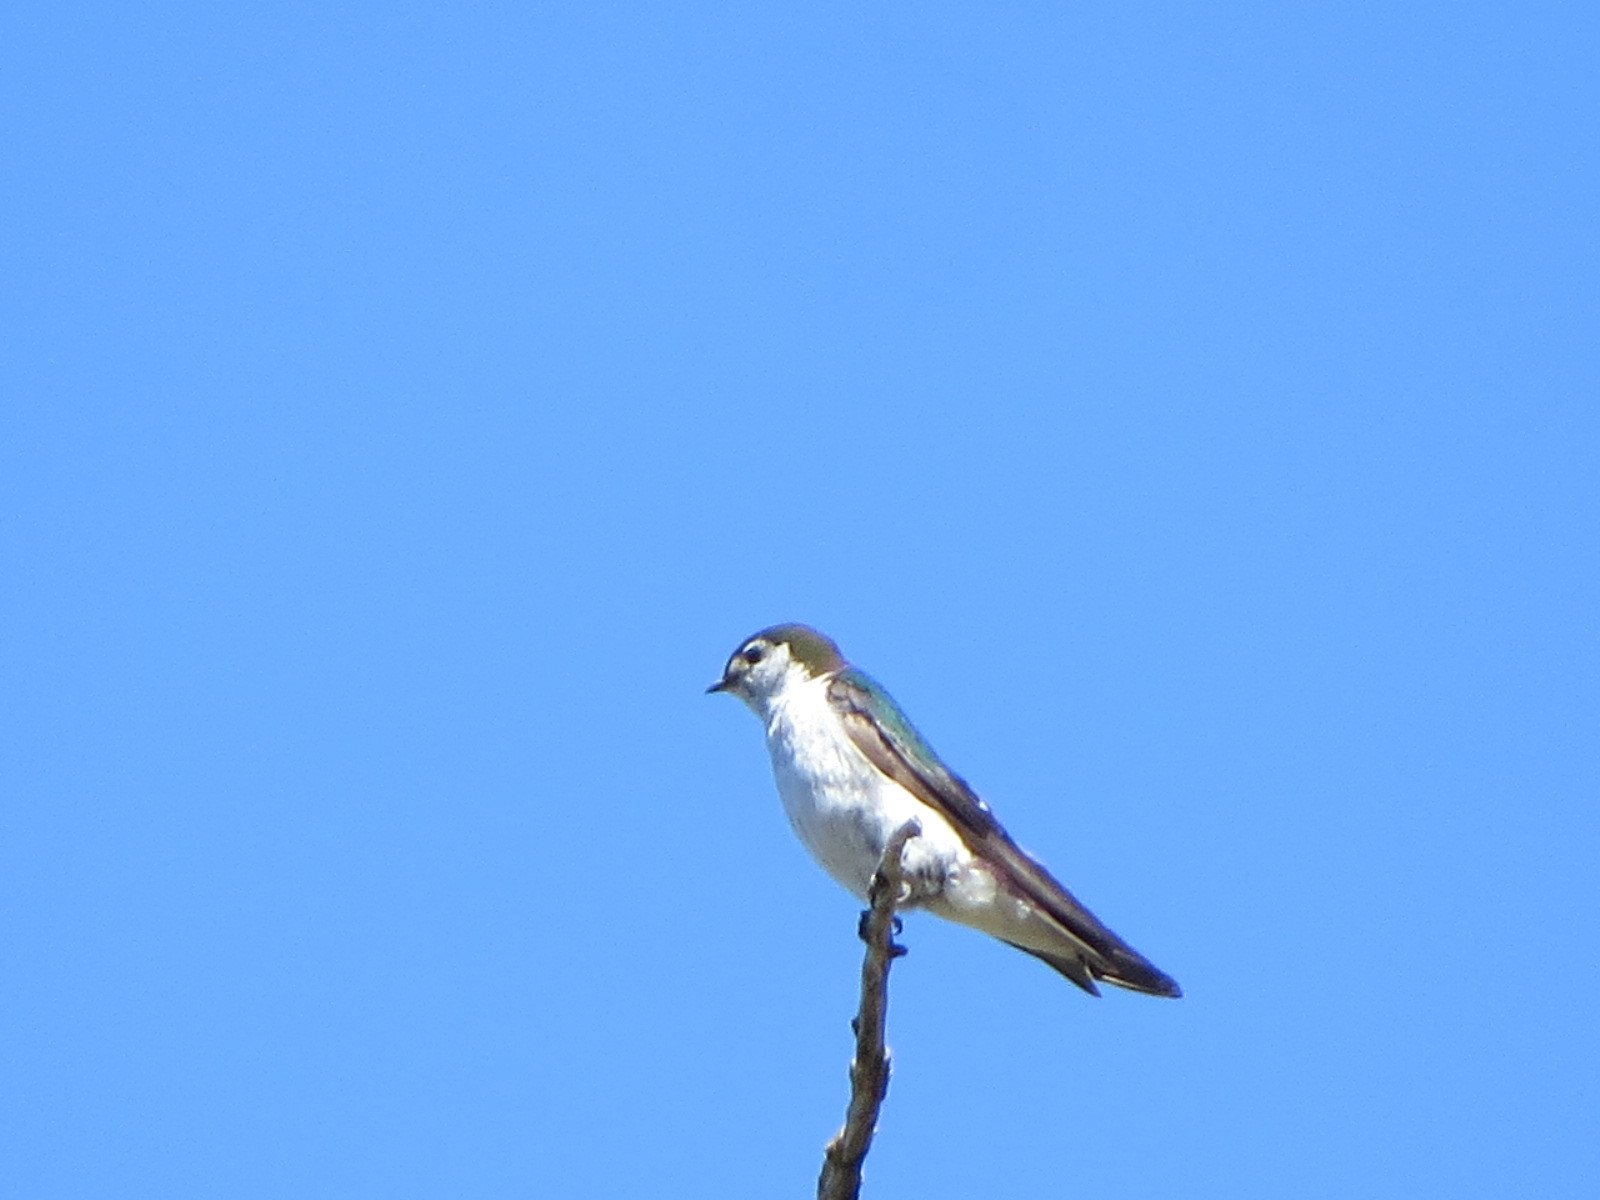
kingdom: Animalia
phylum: Chordata
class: Aves
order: Passeriformes
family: Hirundinidae
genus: Tachycineta
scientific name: Tachycineta thalassina
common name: Violet-green swallow
